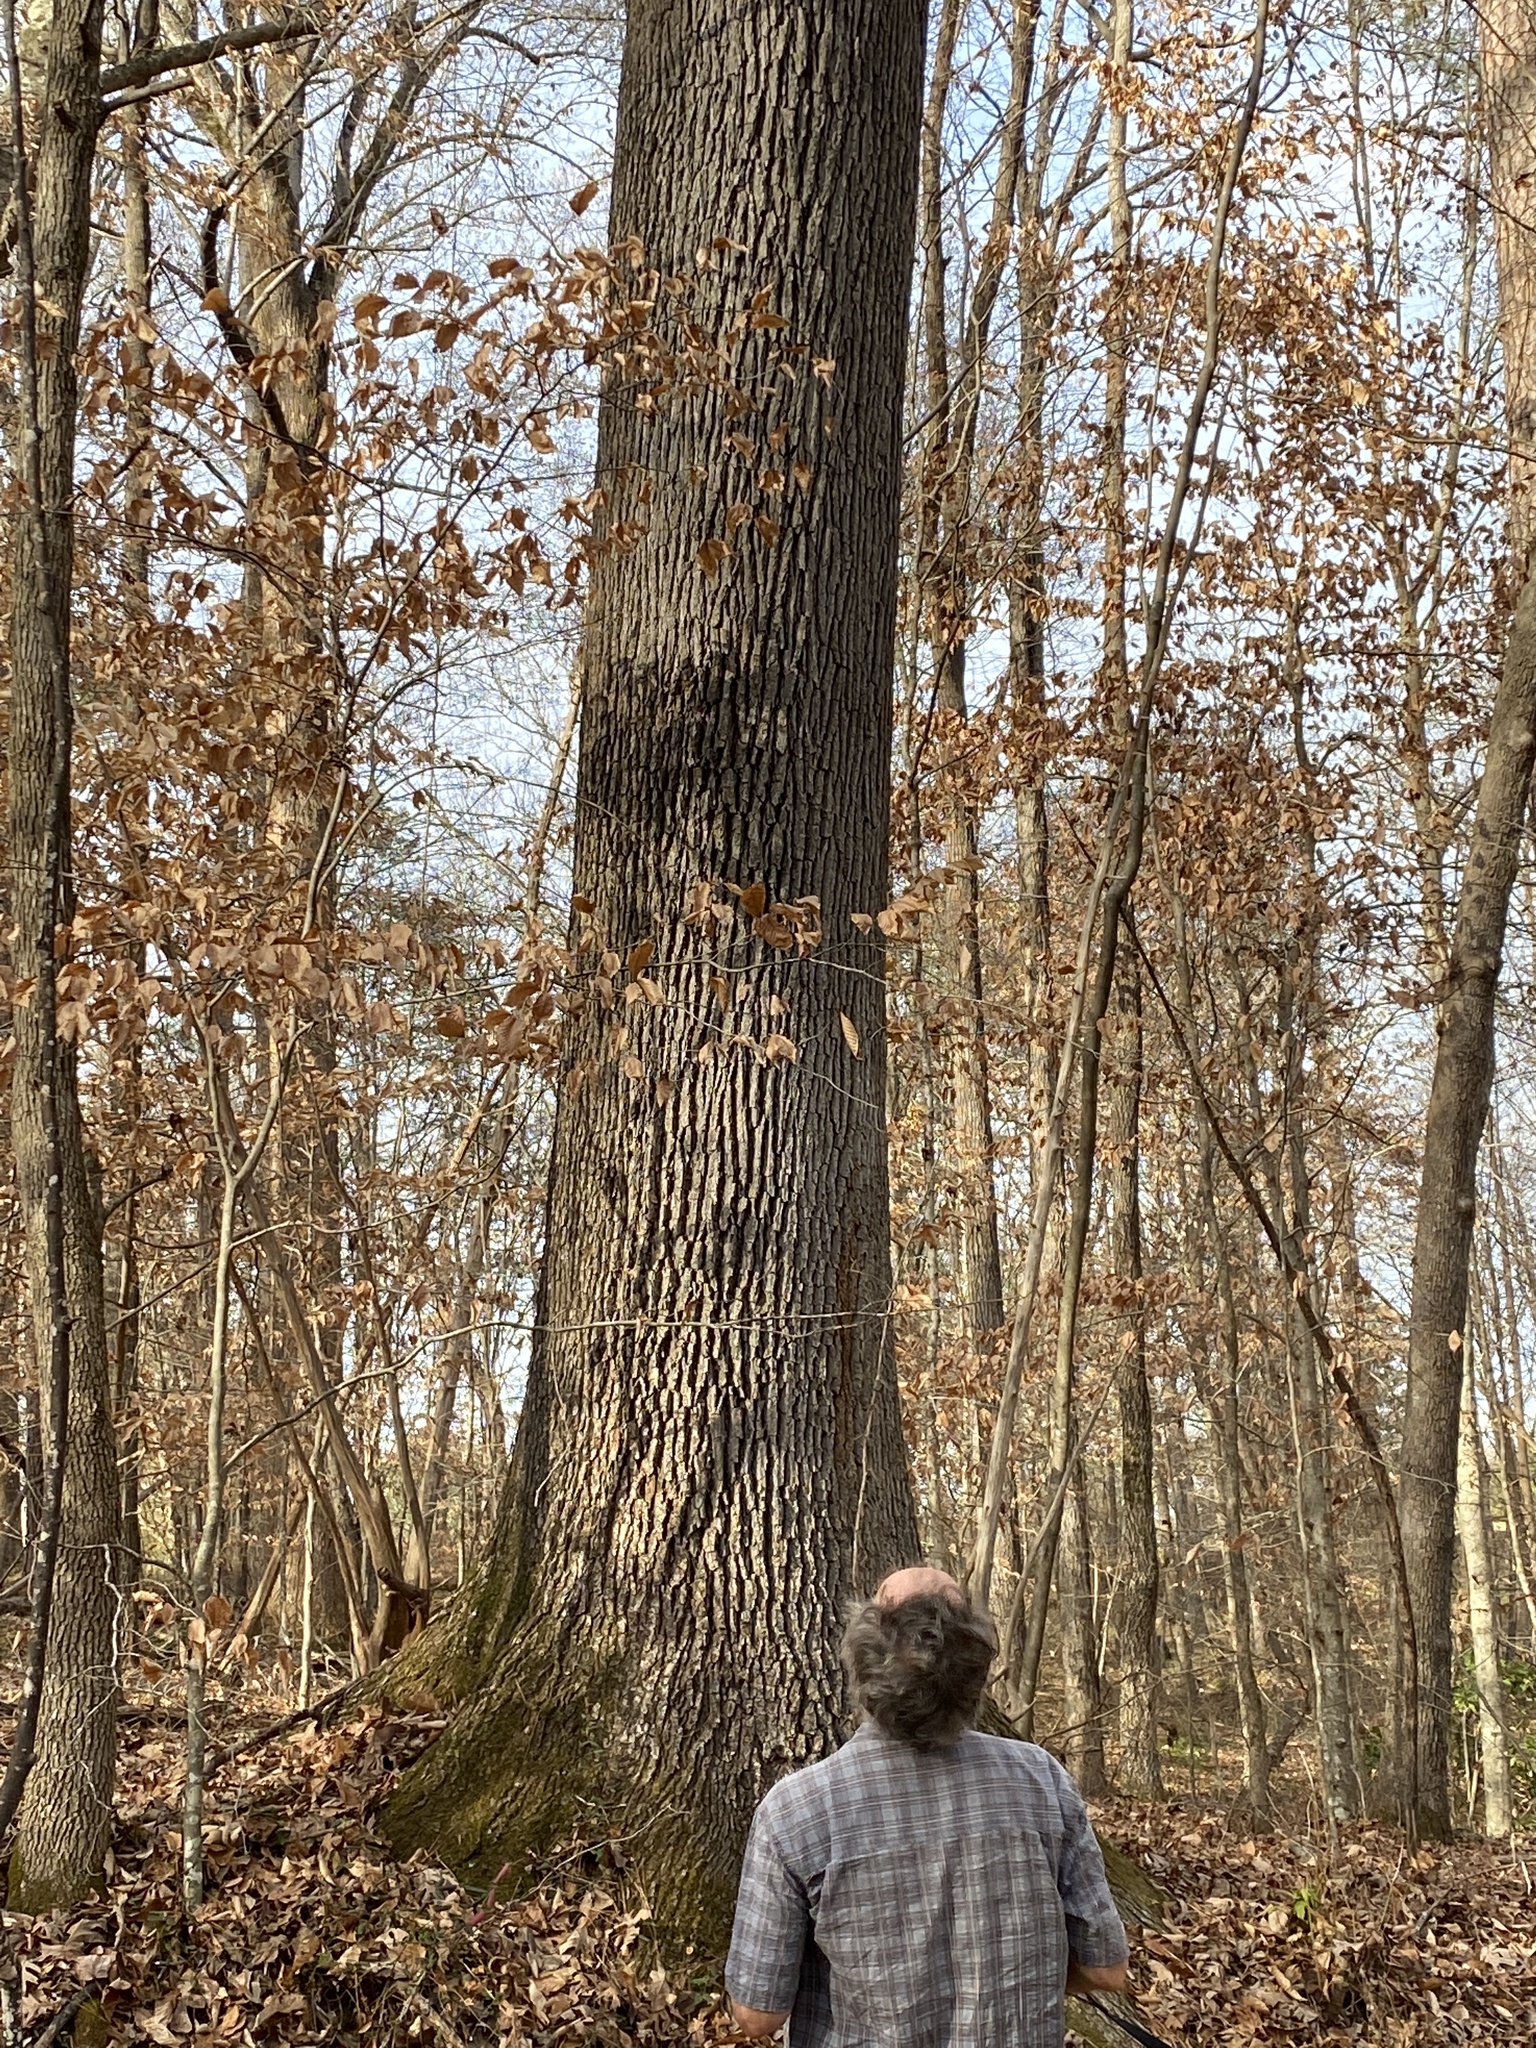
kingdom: Plantae
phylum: Tracheophyta
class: Magnoliopsida
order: Fagales
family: Fagaceae
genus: Quercus
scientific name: Quercus alba
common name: White oak
